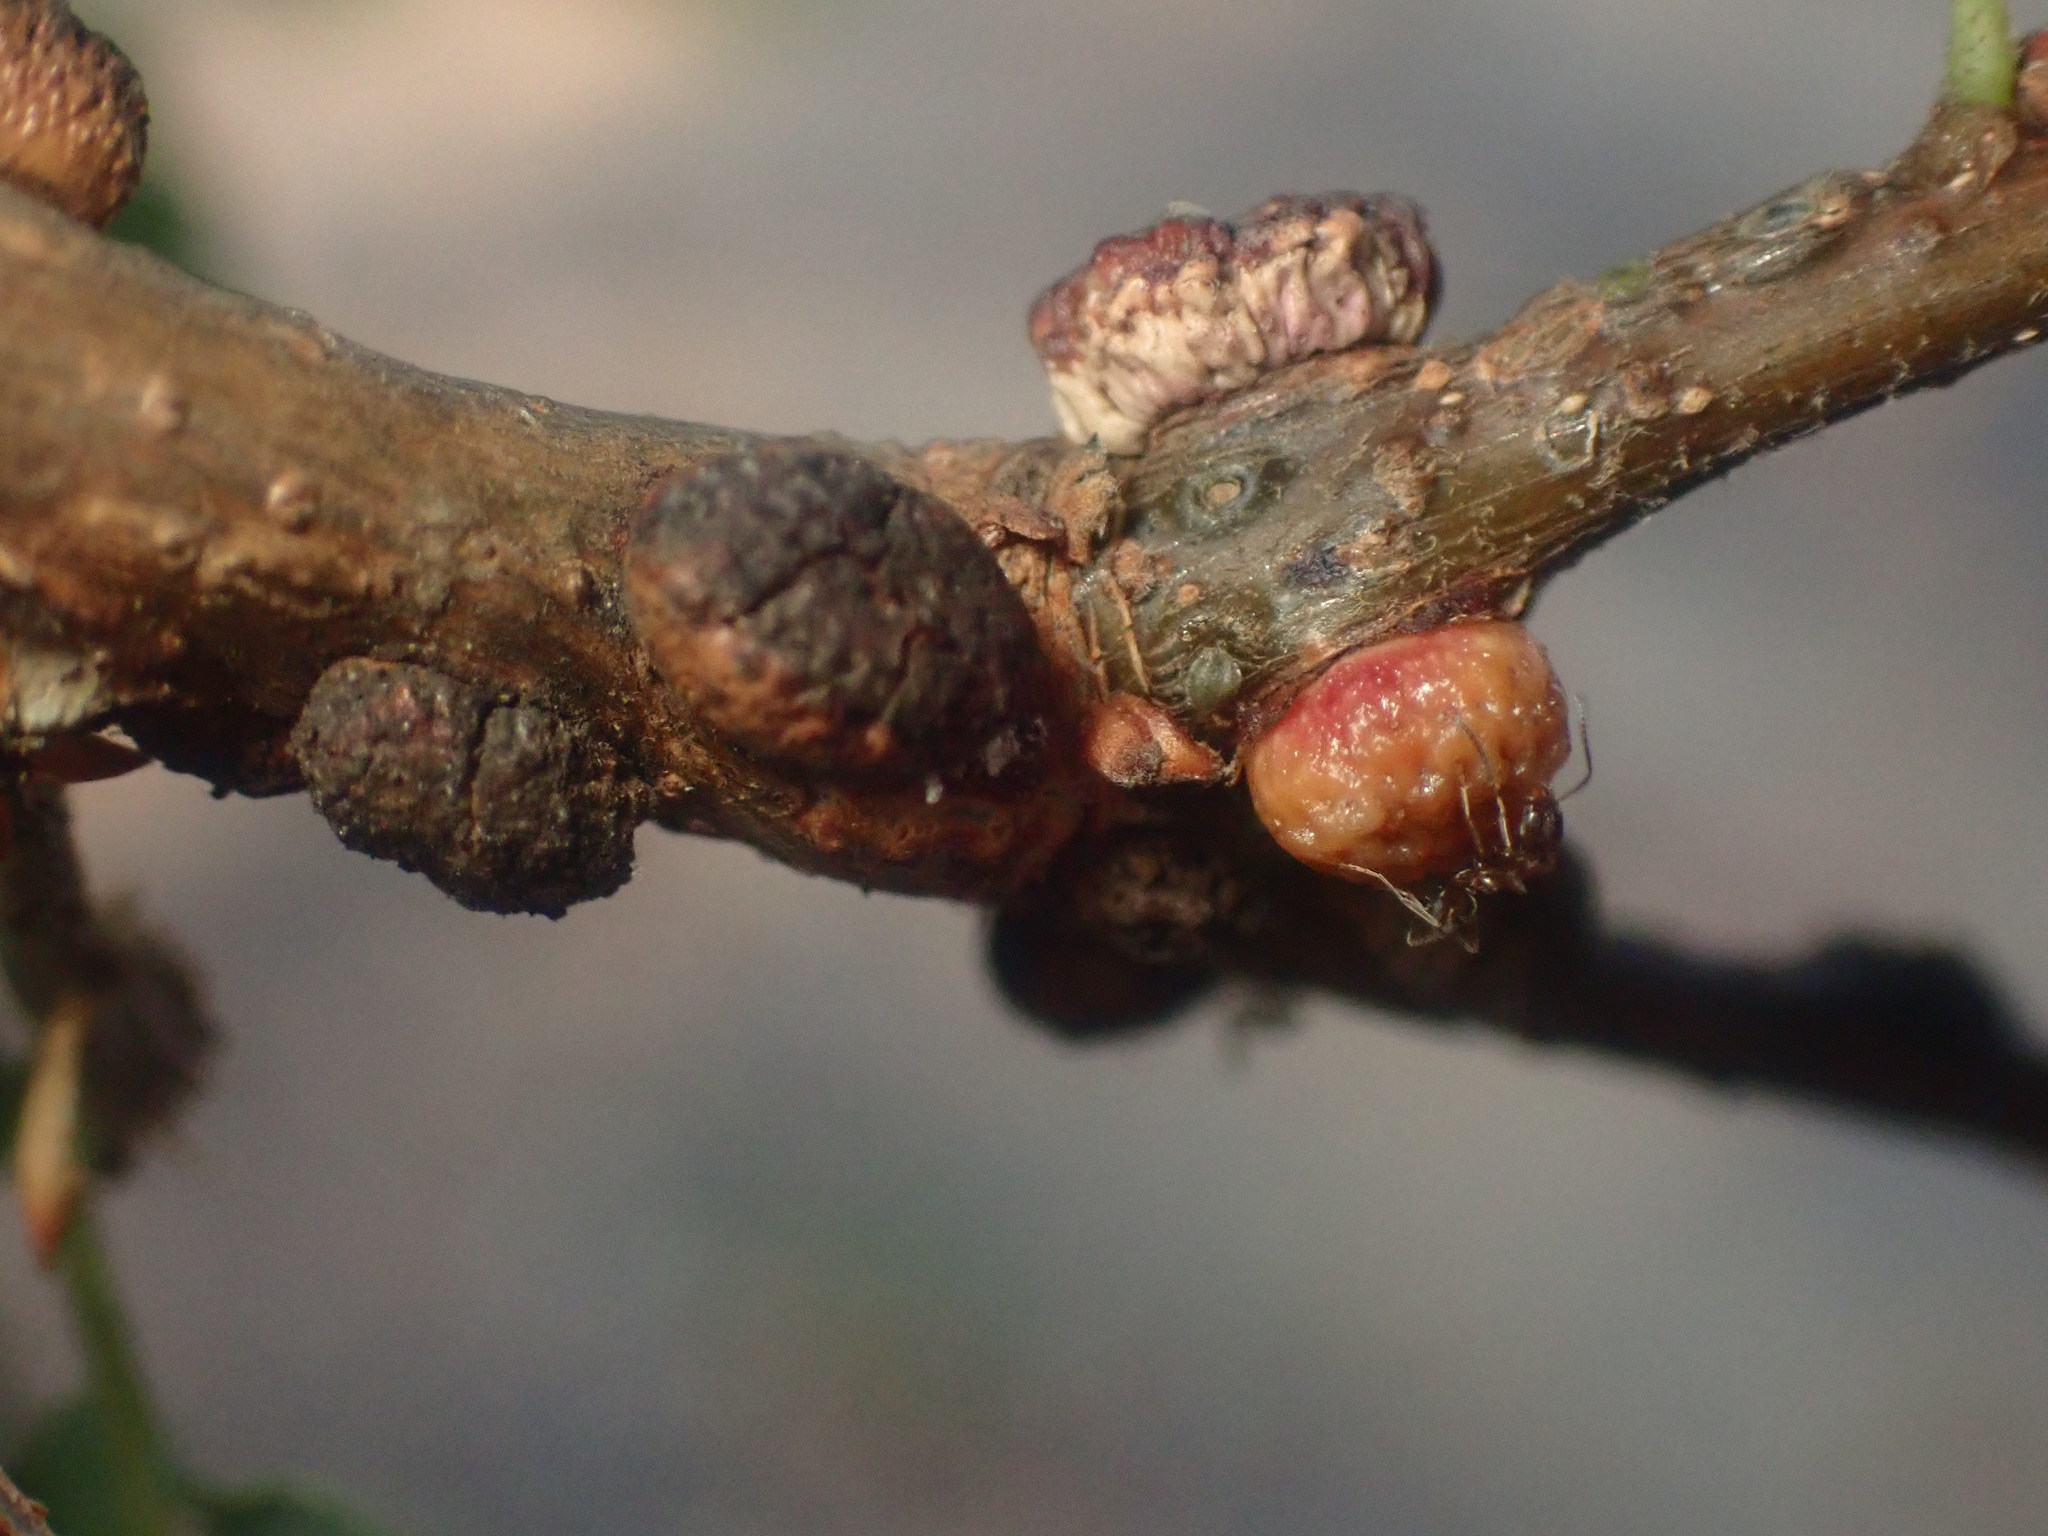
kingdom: Animalia
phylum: Arthropoda
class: Insecta
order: Hymenoptera
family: Cynipidae
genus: Disholcaspis
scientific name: Disholcaspis
